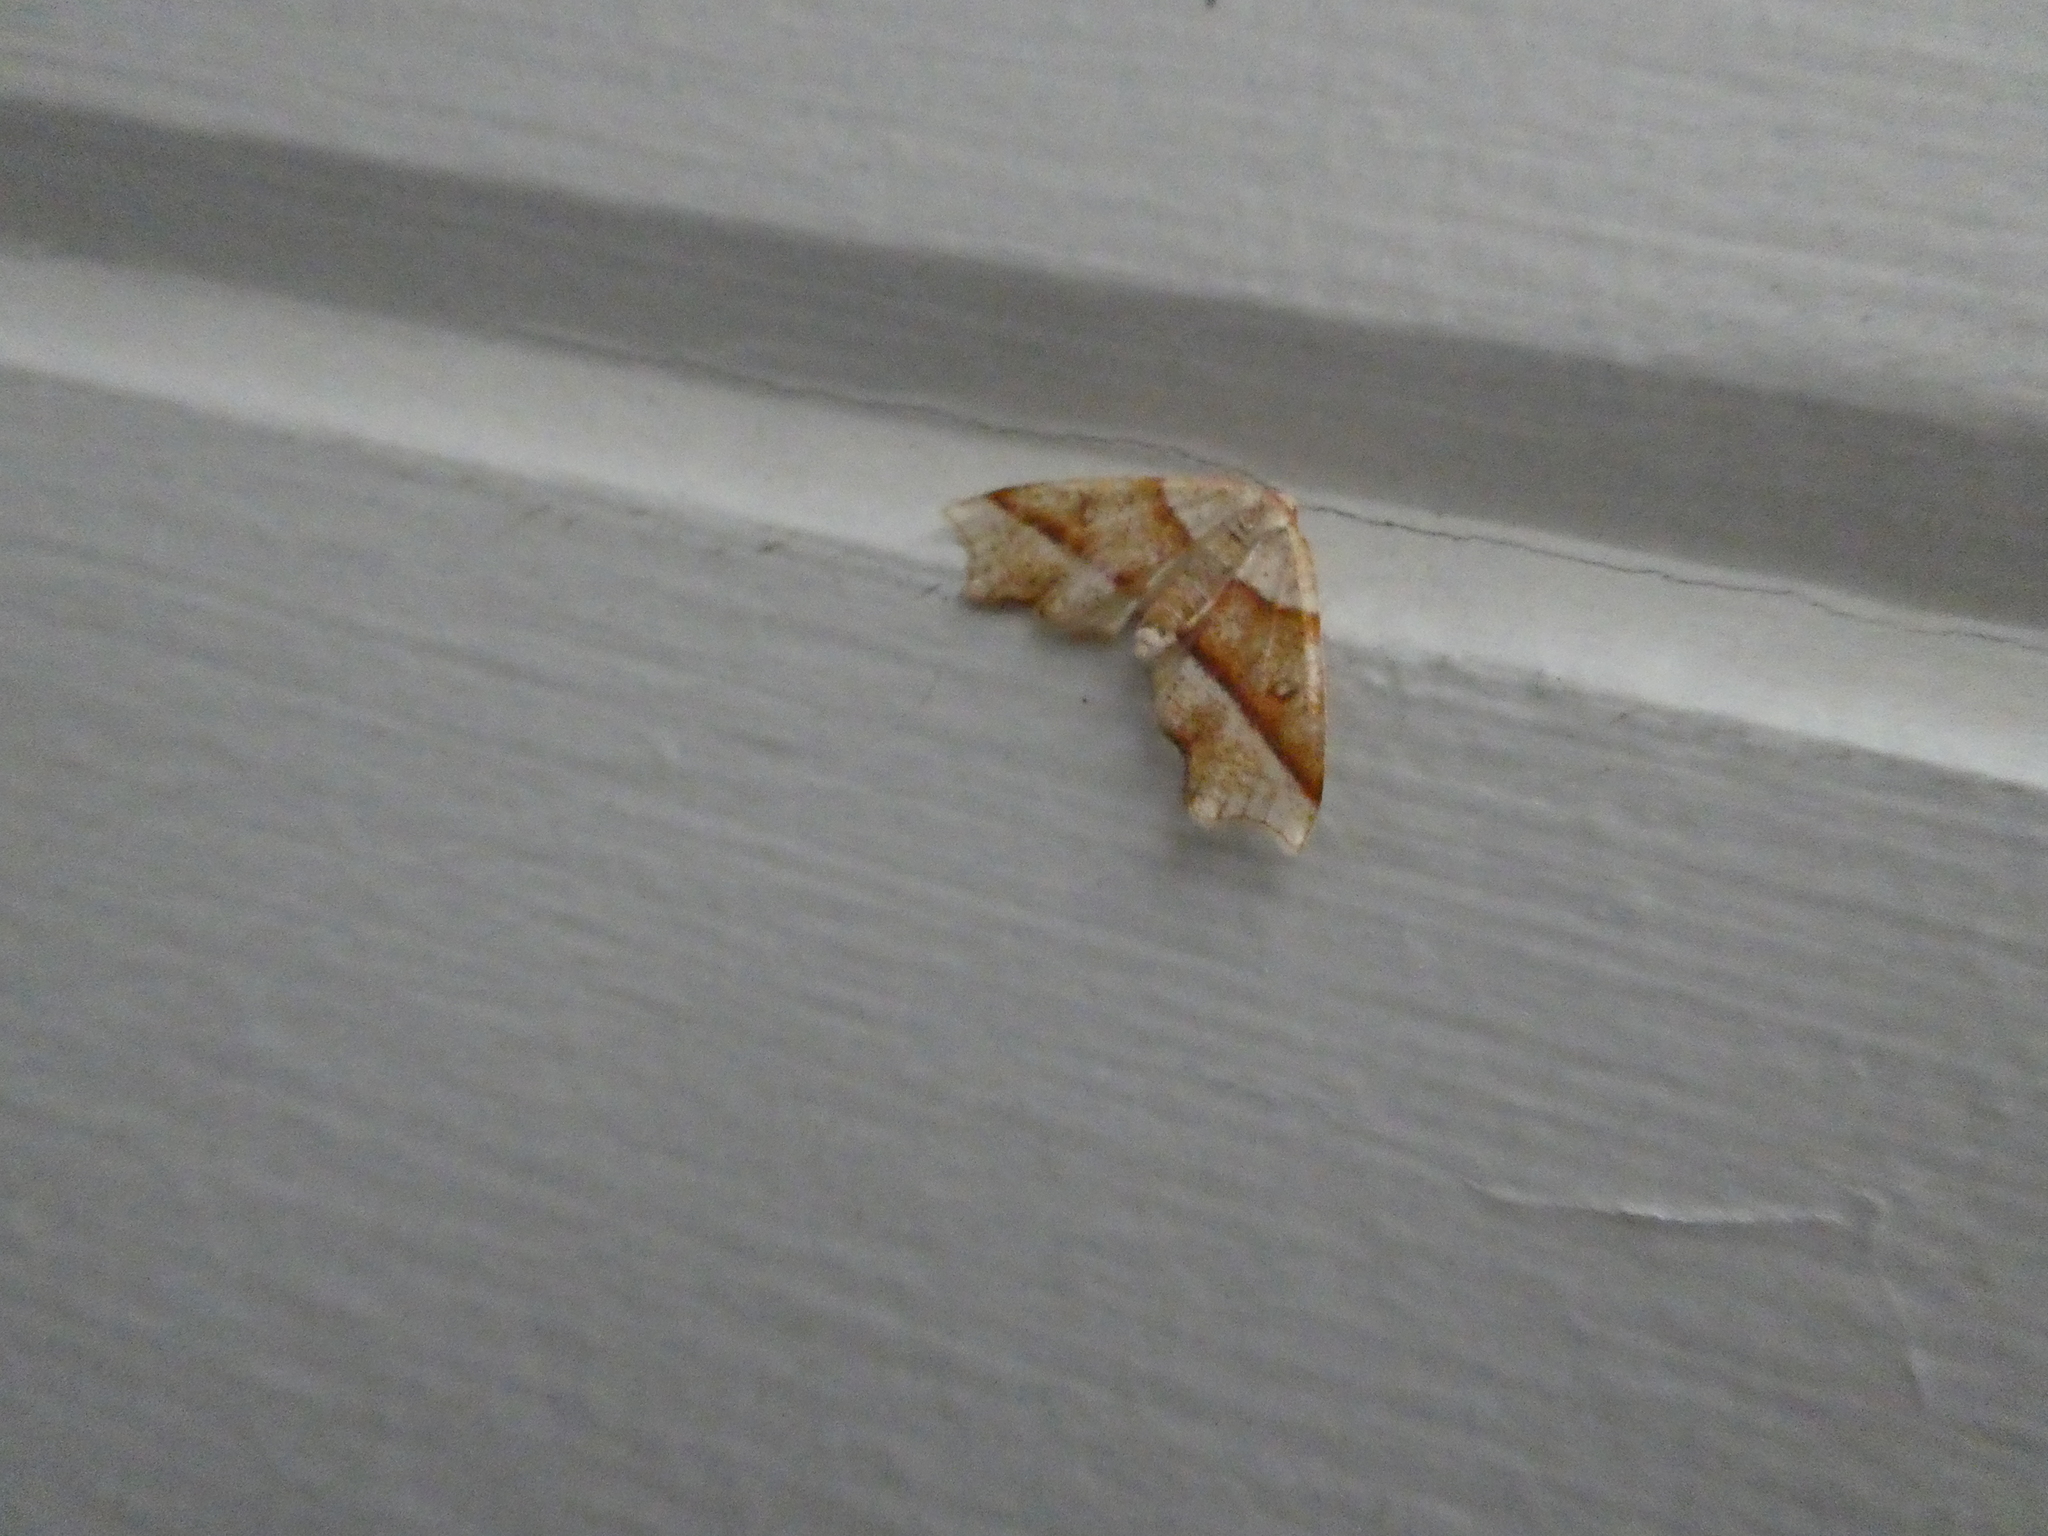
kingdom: Animalia
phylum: Arthropoda
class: Insecta
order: Lepidoptera
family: Geometridae
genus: Plagodis
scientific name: Plagodis alcoolaria
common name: Hollow-spotted plagodis
